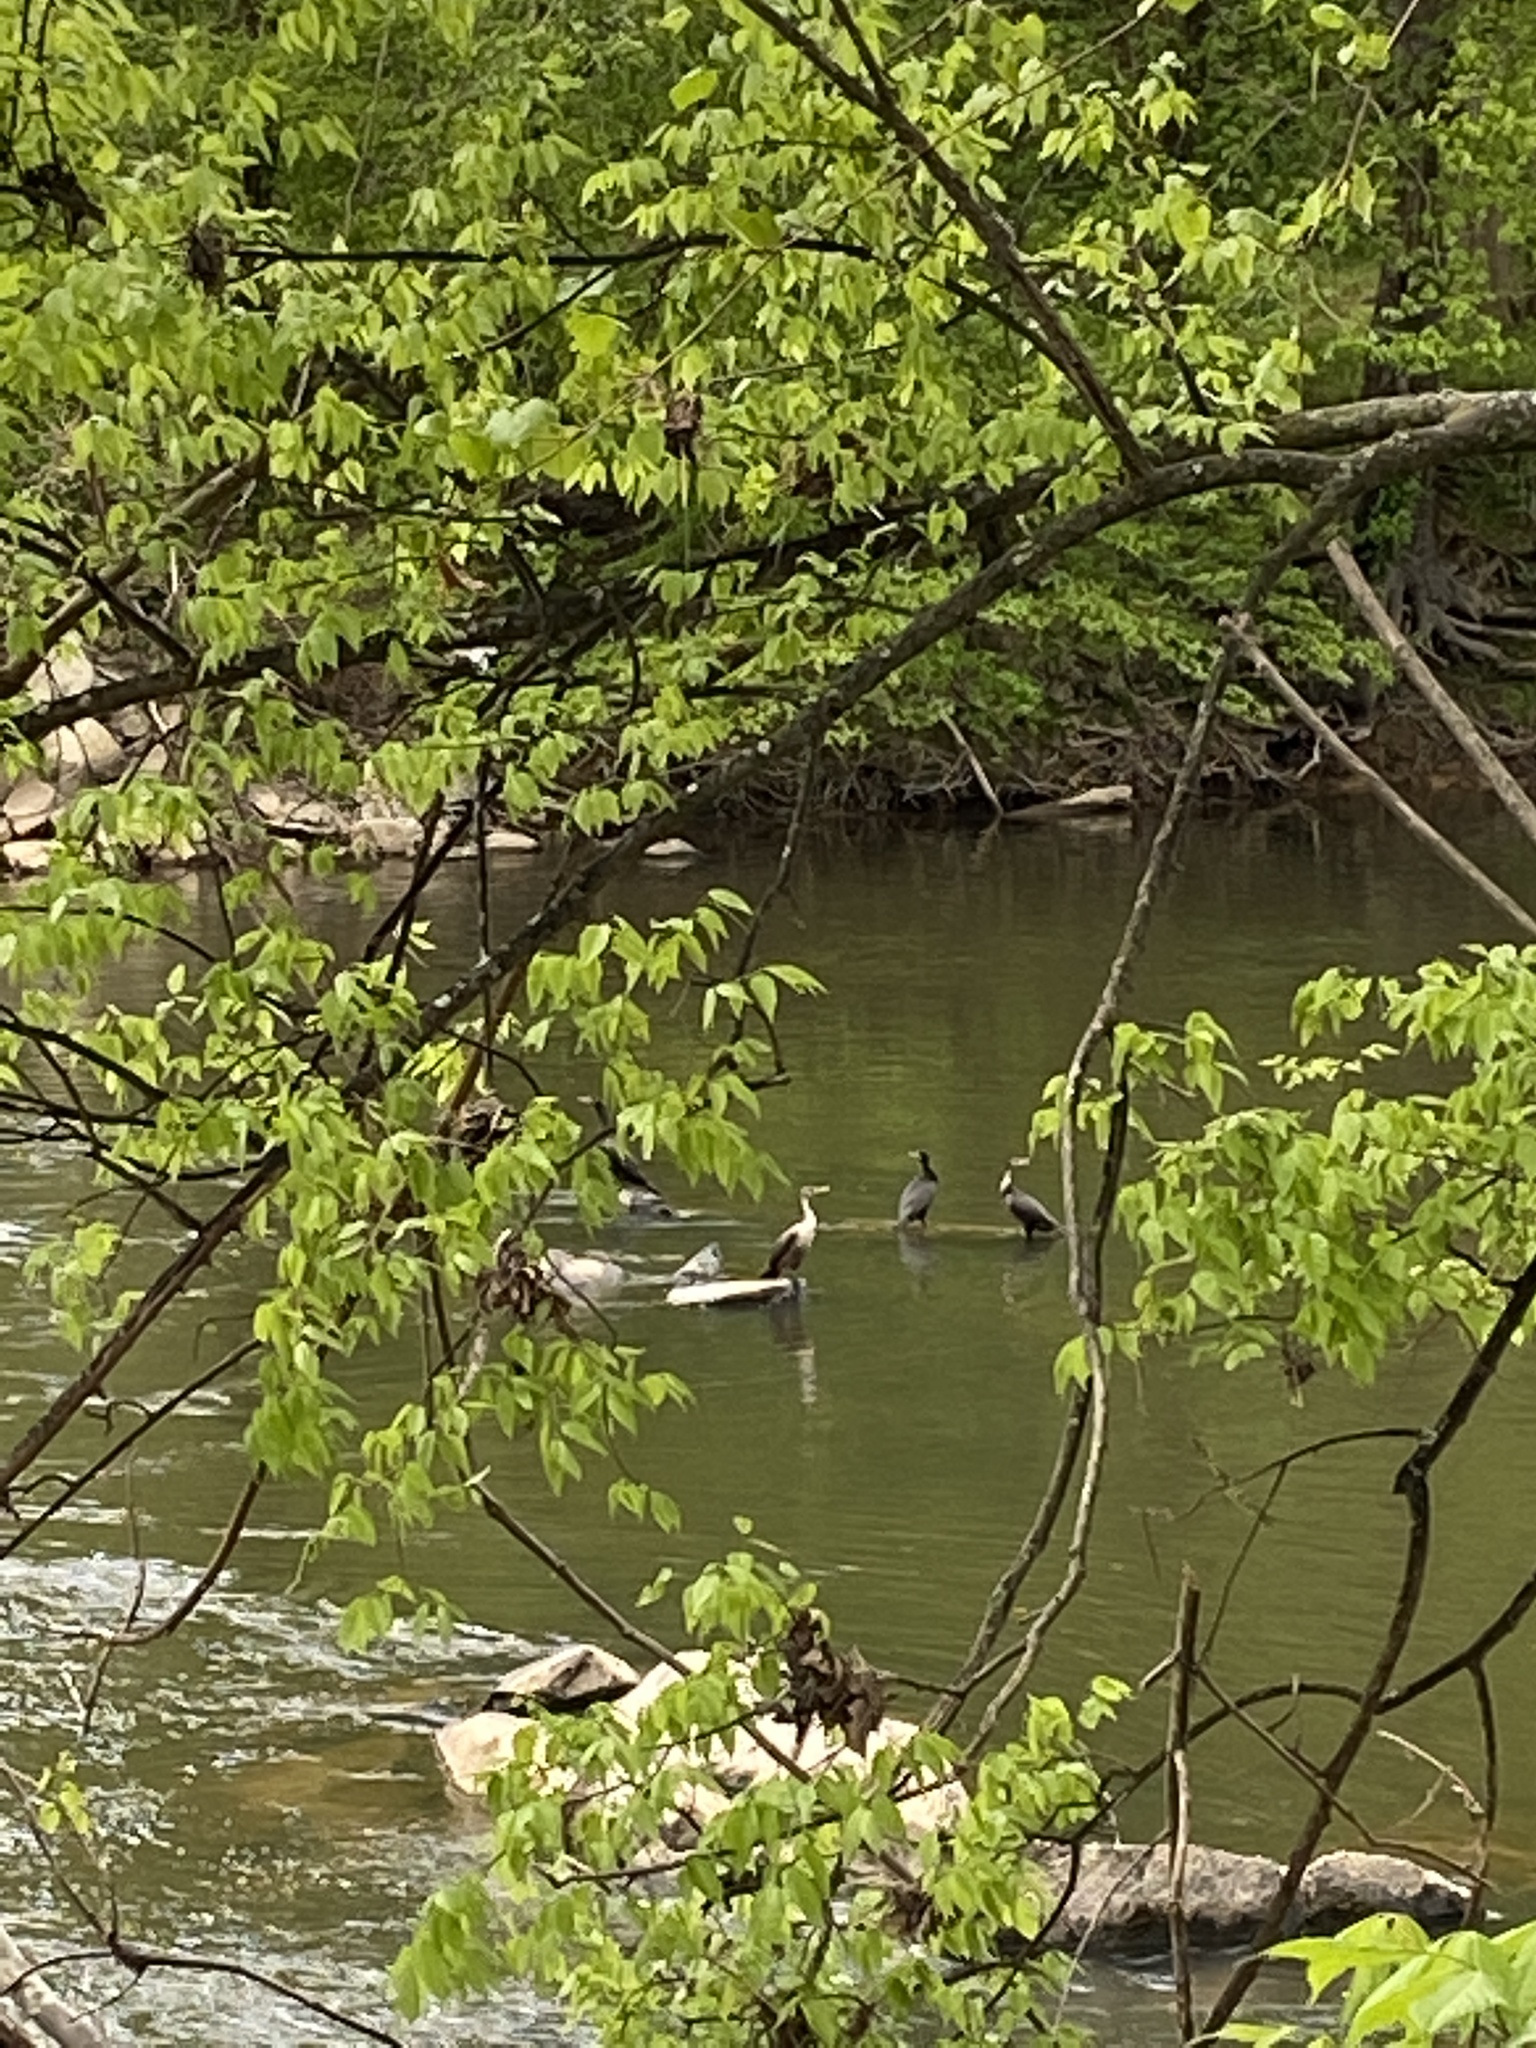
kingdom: Animalia
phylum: Chordata
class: Aves
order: Suliformes
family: Phalacrocoracidae
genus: Phalacrocorax
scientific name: Phalacrocorax auritus
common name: Double-crested cormorant
